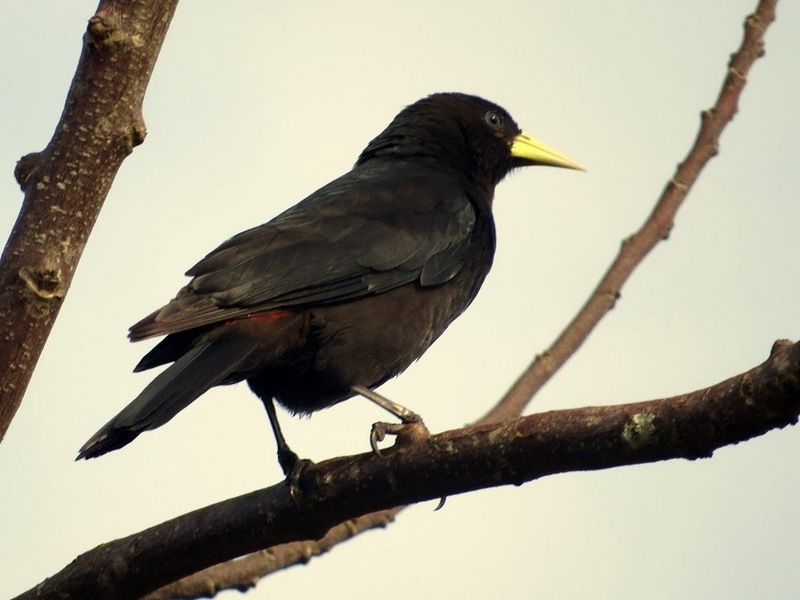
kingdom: Animalia
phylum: Chordata
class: Aves
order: Passeriformes
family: Icteridae
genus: Cacicus
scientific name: Cacicus haemorrhous
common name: Red-rumped cacique
